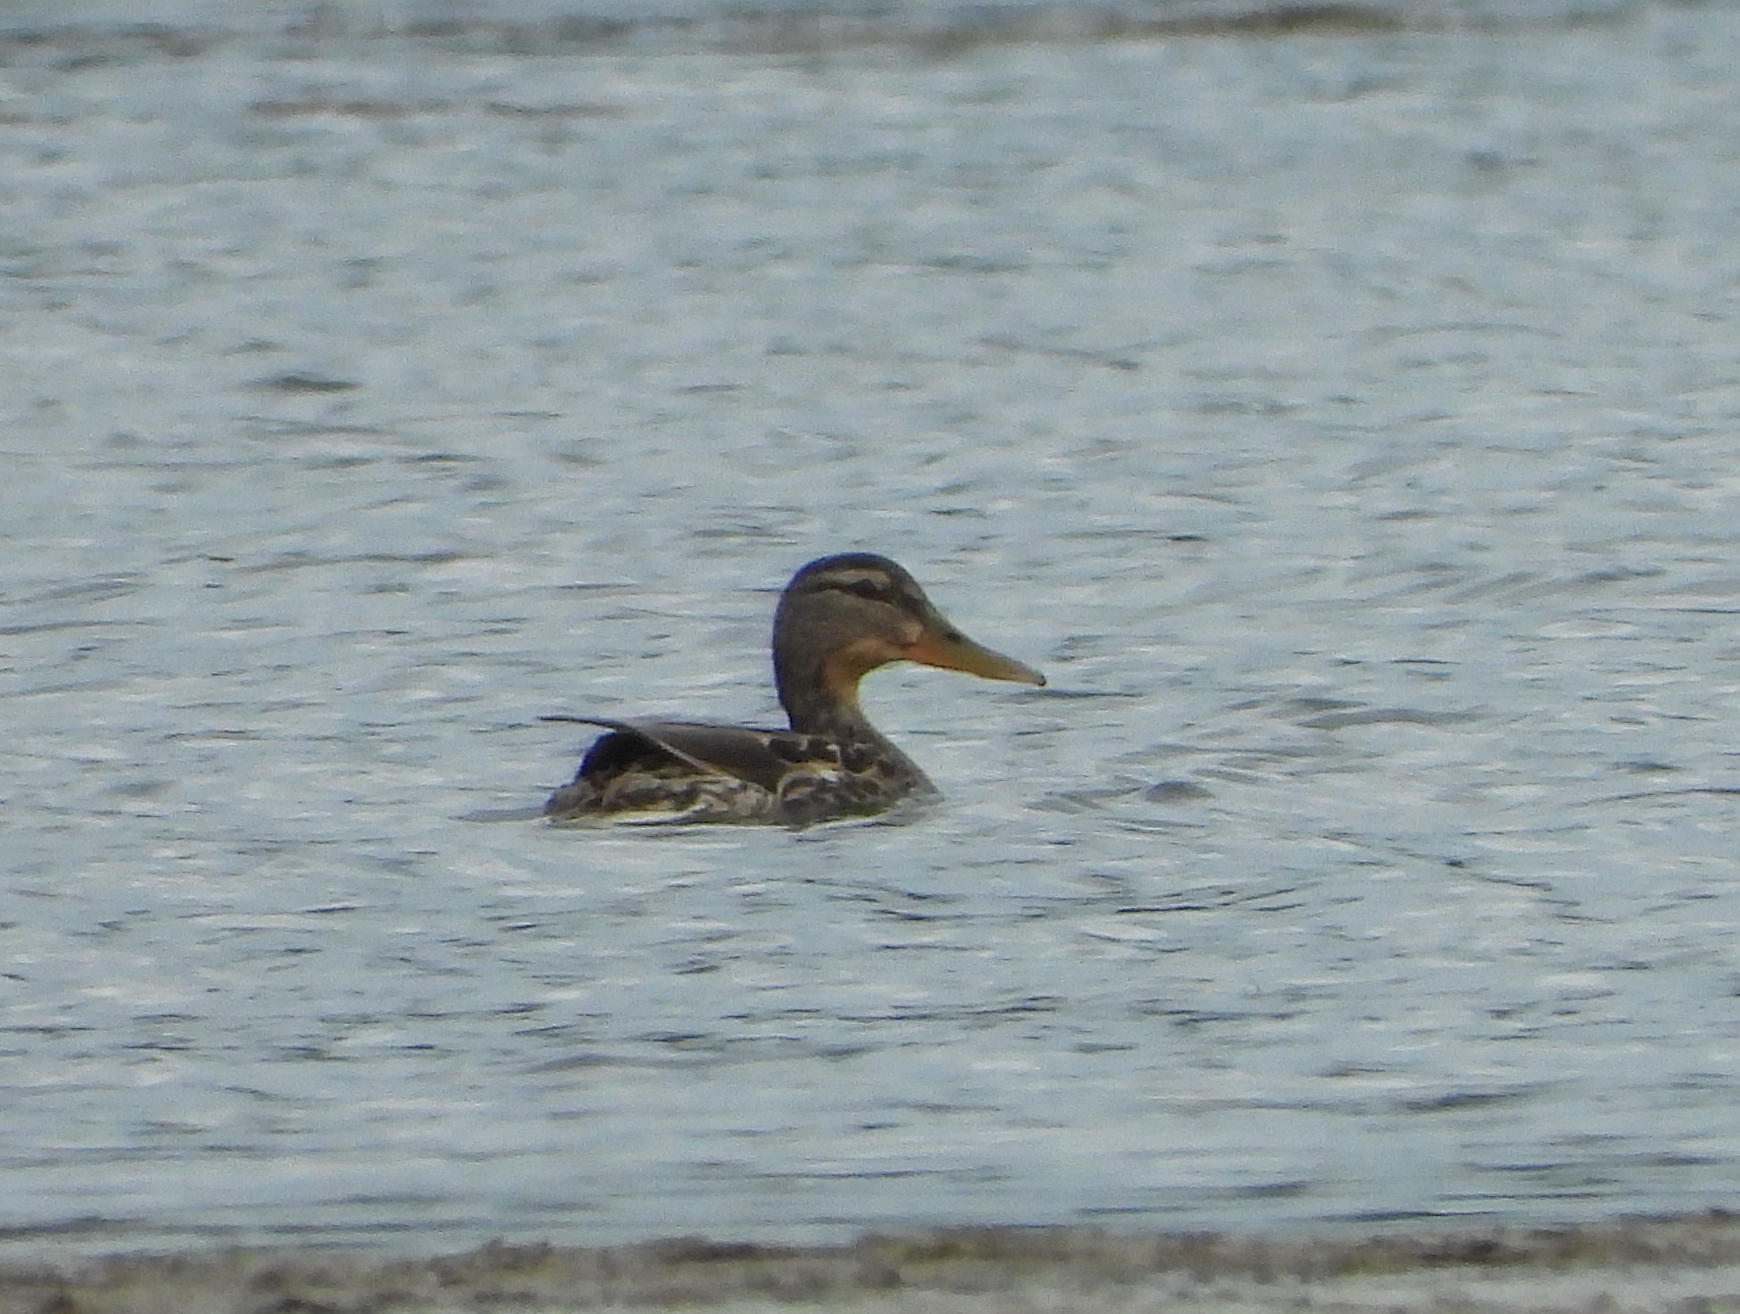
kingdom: Animalia
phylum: Chordata
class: Aves
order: Anseriformes
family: Anatidae
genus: Anas
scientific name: Anas platyrhynchos
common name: Mallard
